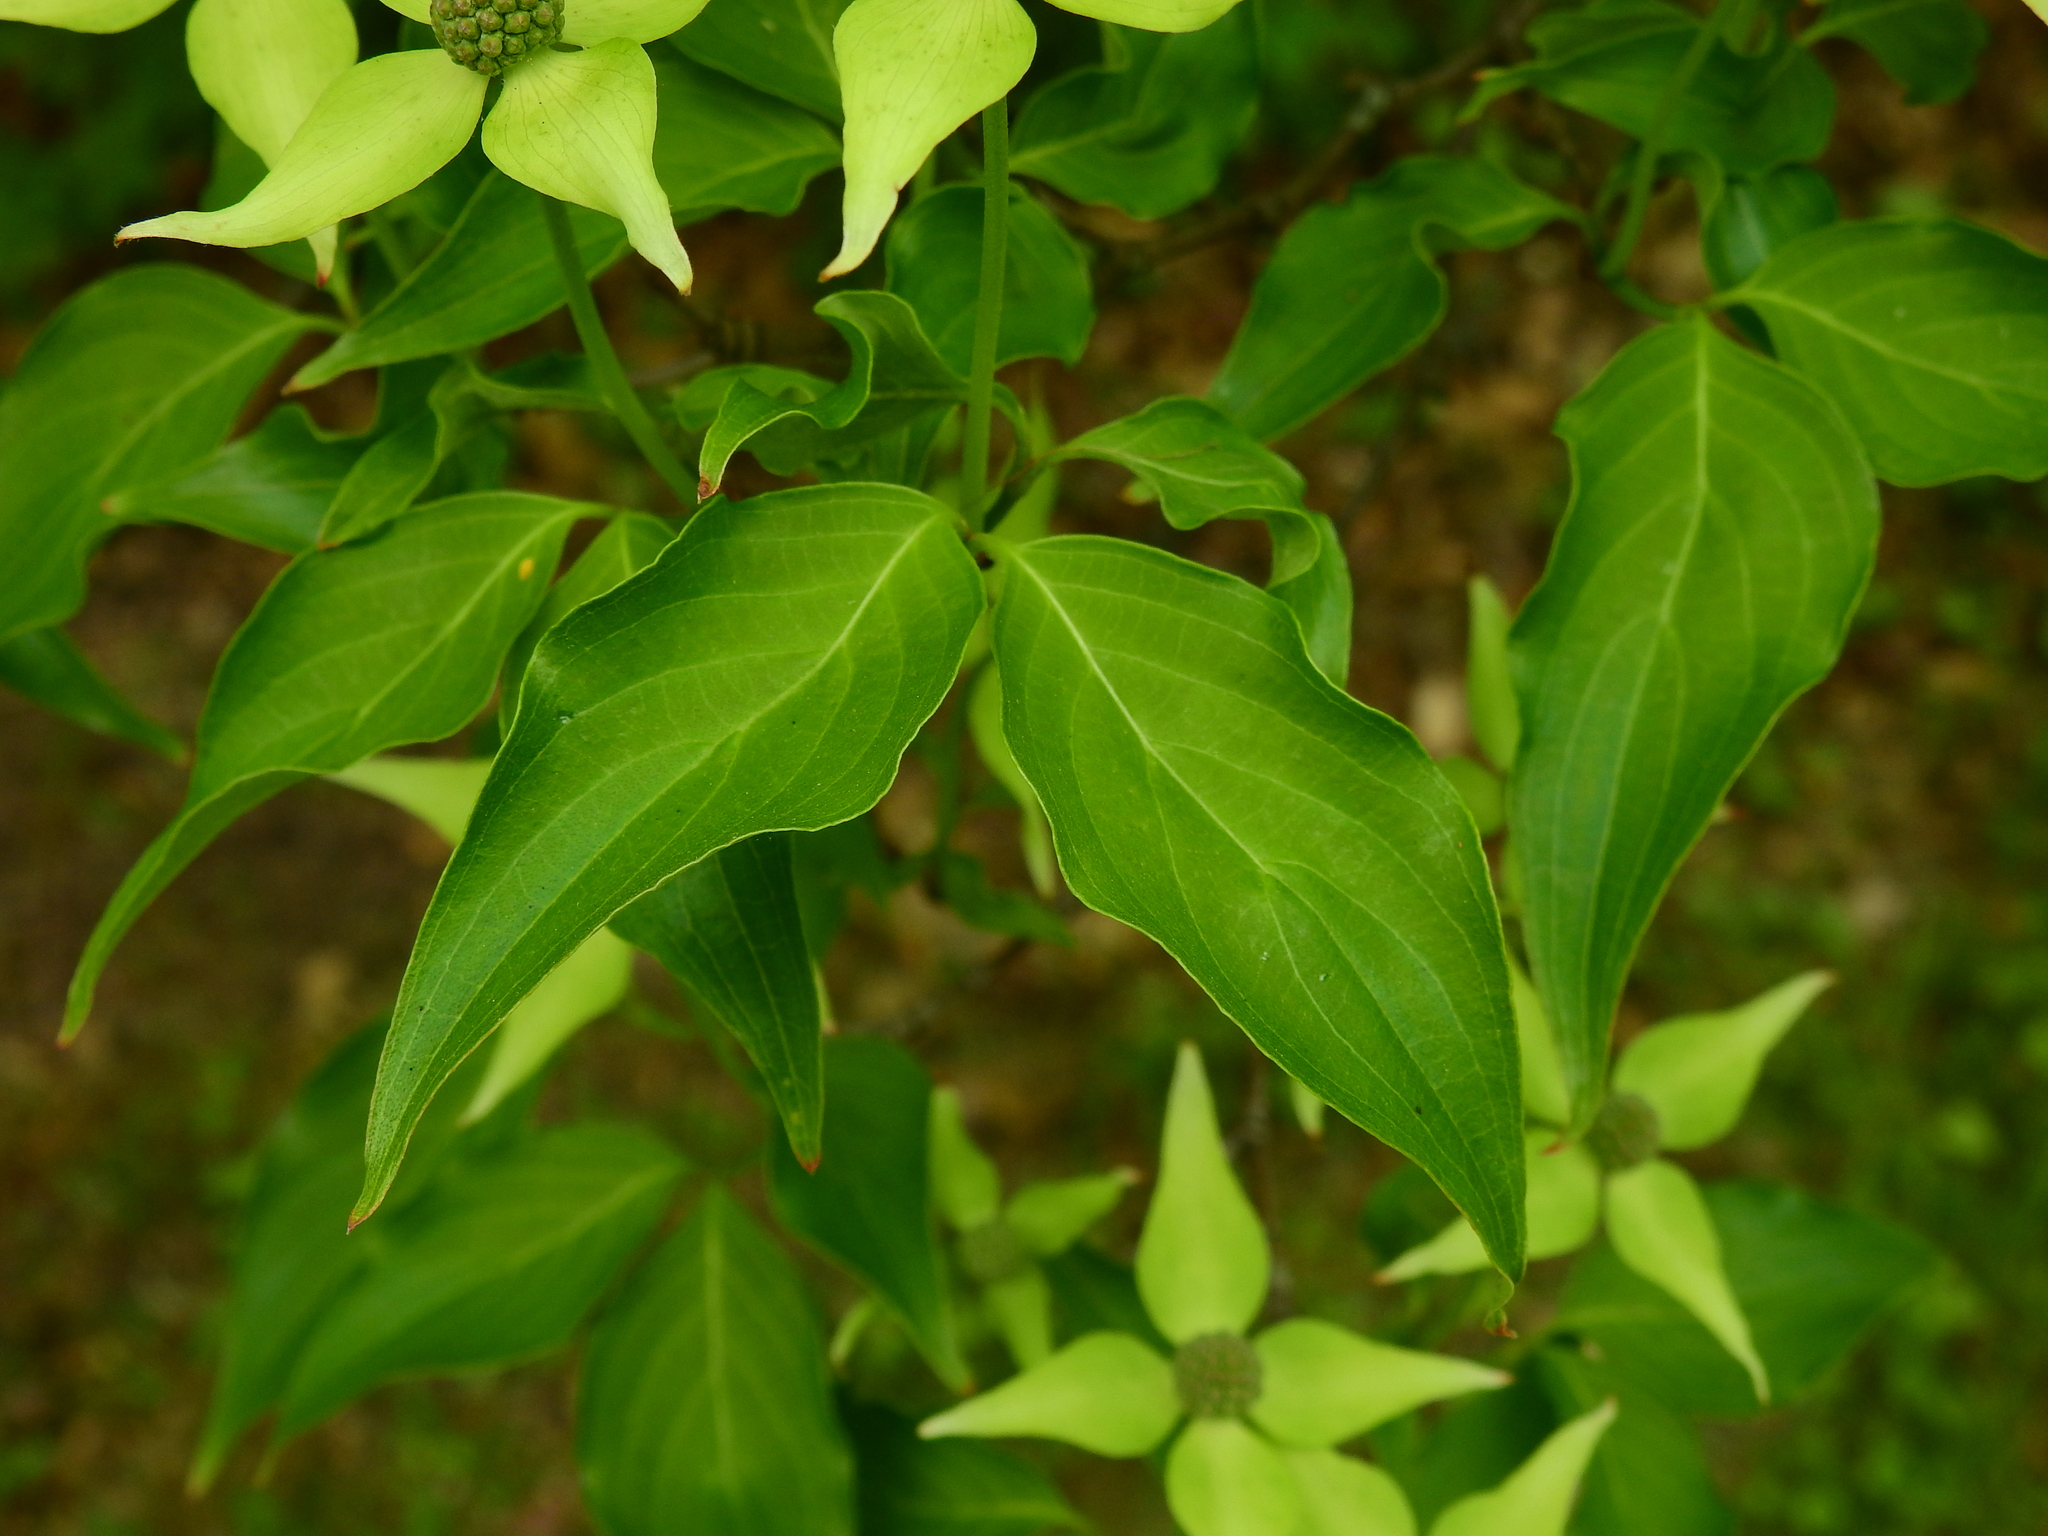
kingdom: Plantae
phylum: Tracheophyta
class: Magnoliopsida
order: Cornales
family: Cornaceae
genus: Cornus
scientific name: Cornus kousa
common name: Japanese dogwood
